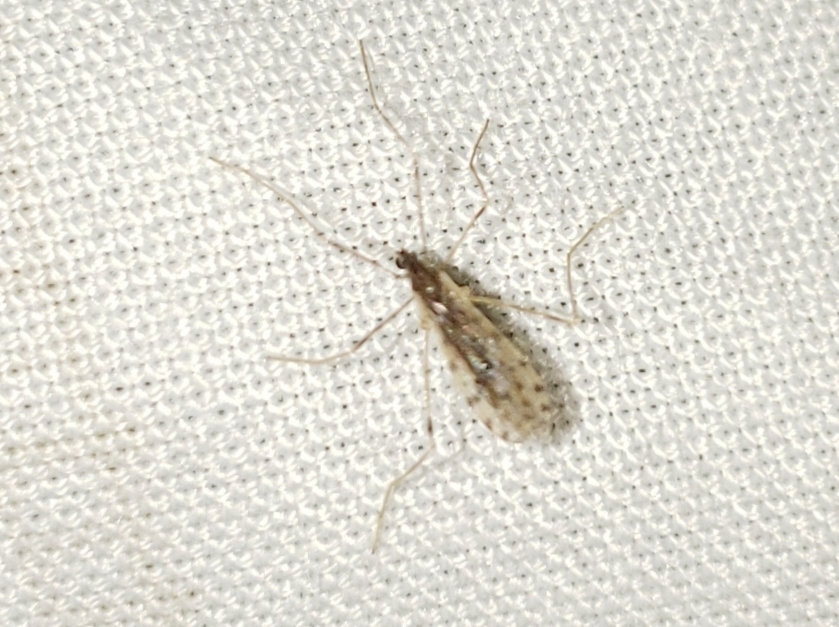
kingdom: Animalia
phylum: Arthropoda
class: Insecta
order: Diptera
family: Limoniidae
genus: Erioptera
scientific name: Erioptera parva
